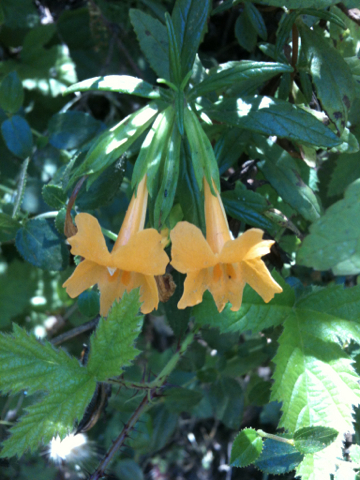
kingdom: Plantae
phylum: Tracheophyta
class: Magnoliopsida
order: Lamiales
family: Phrymaceae
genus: Diplacus
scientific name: Diplacus aurantiacus
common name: Bush monkey-flower
